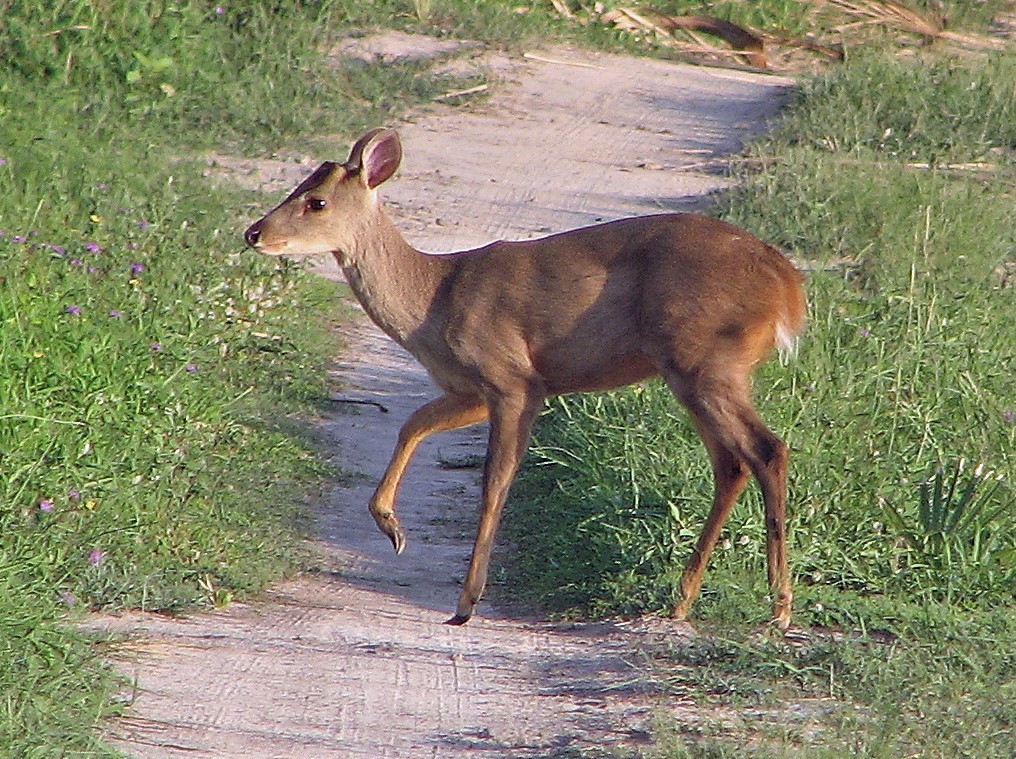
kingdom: Animalia
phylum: Chordata
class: Mammalia
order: Artiodactyla
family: Cervidae
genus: Mazama
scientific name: Mazama gouazoubira
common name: Gray brocket
